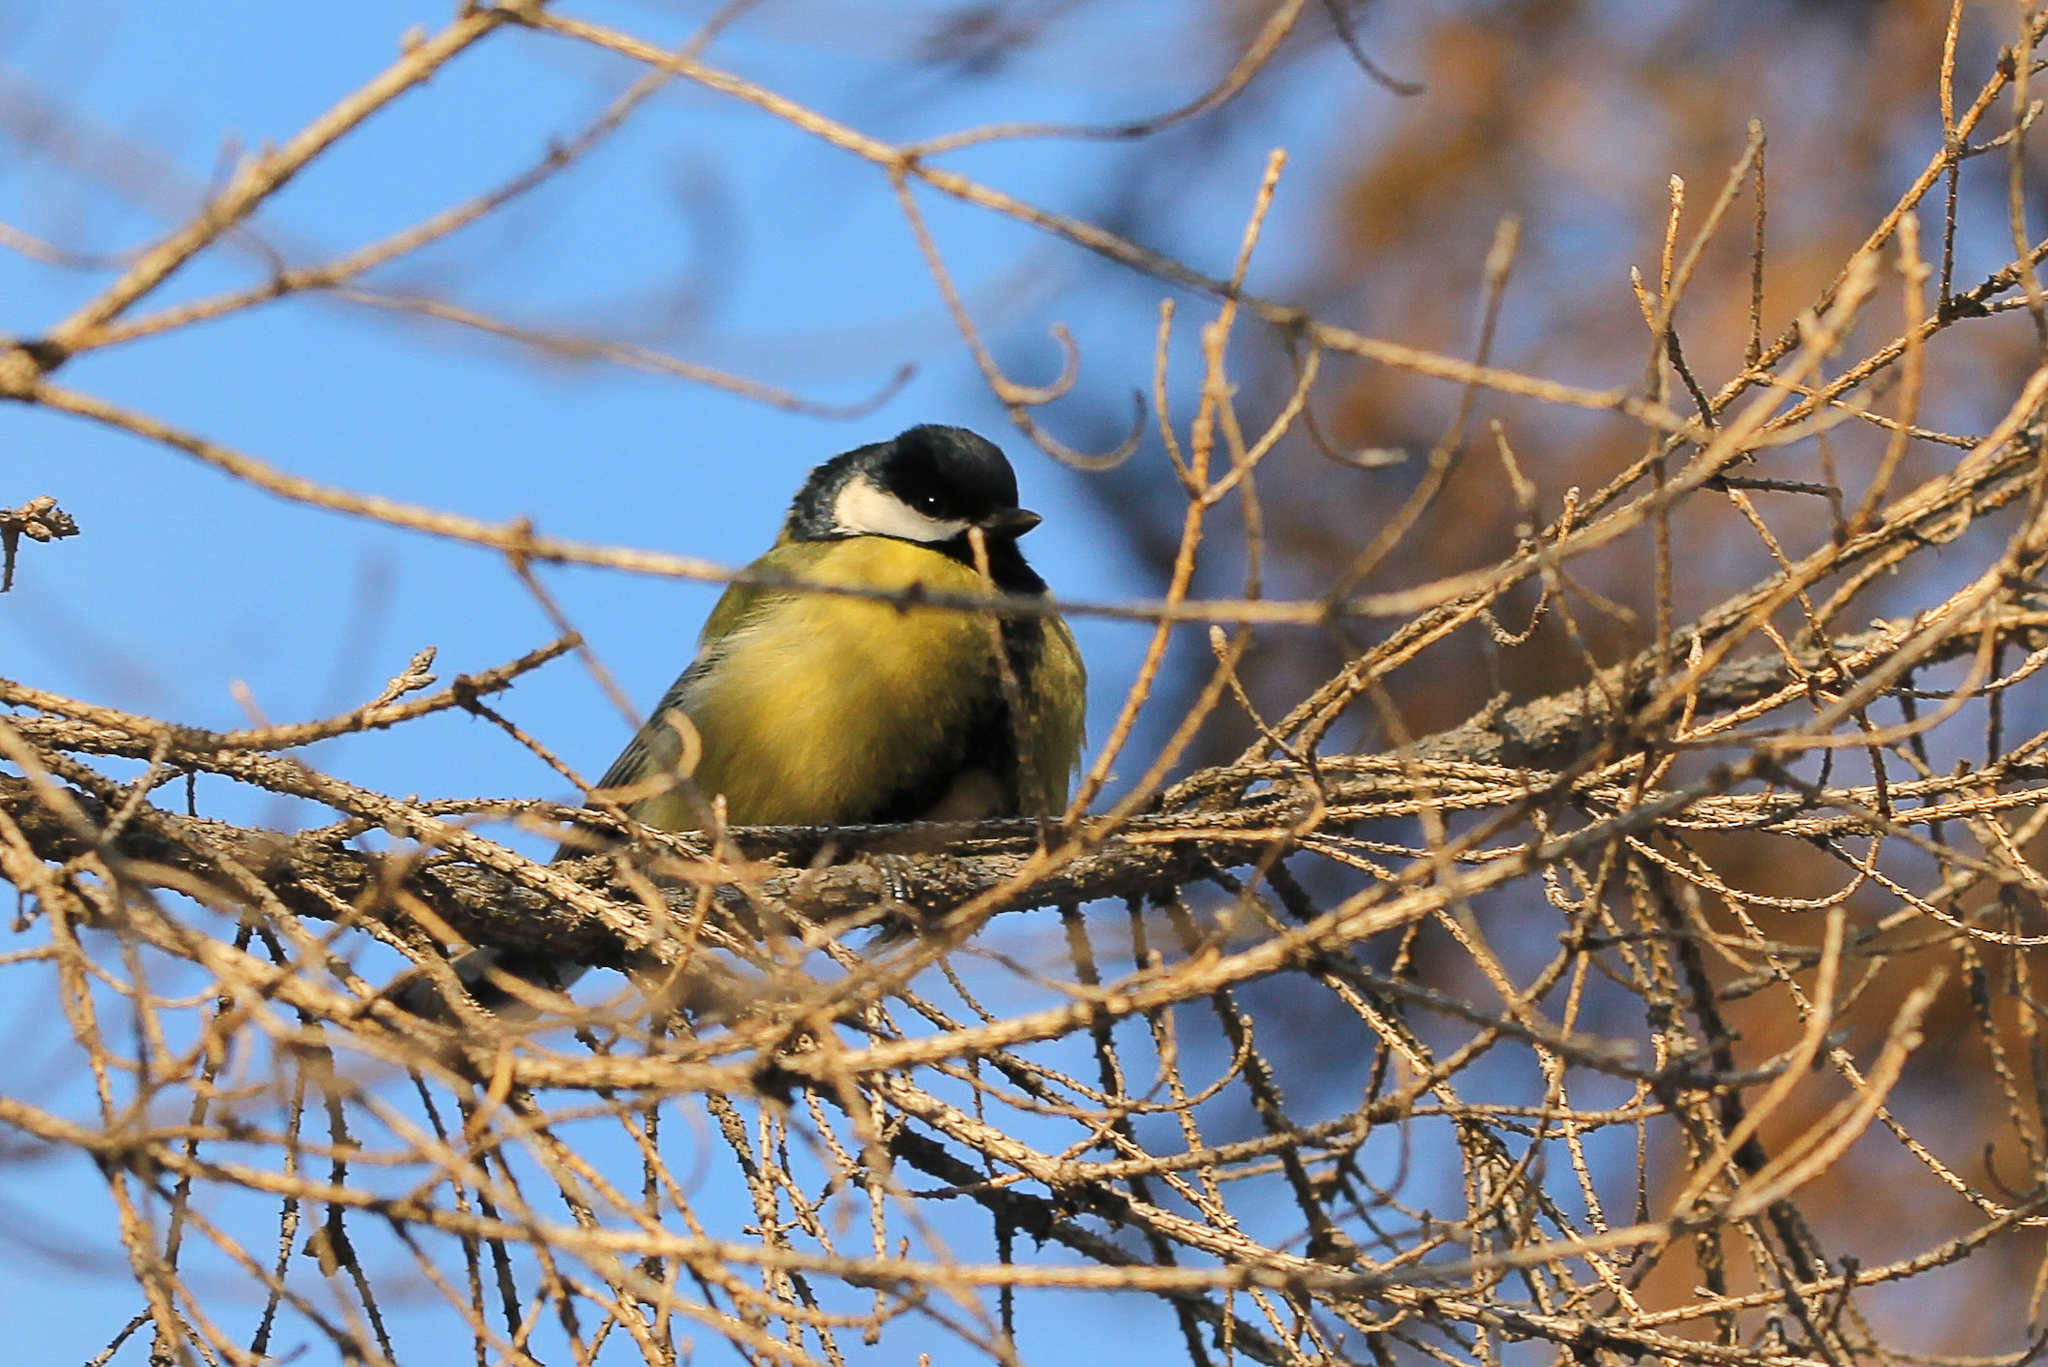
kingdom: Animalia
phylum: Chordata
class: Aves
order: Passeriformes
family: Paridae
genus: Parus
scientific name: Parus major
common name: Great tit
